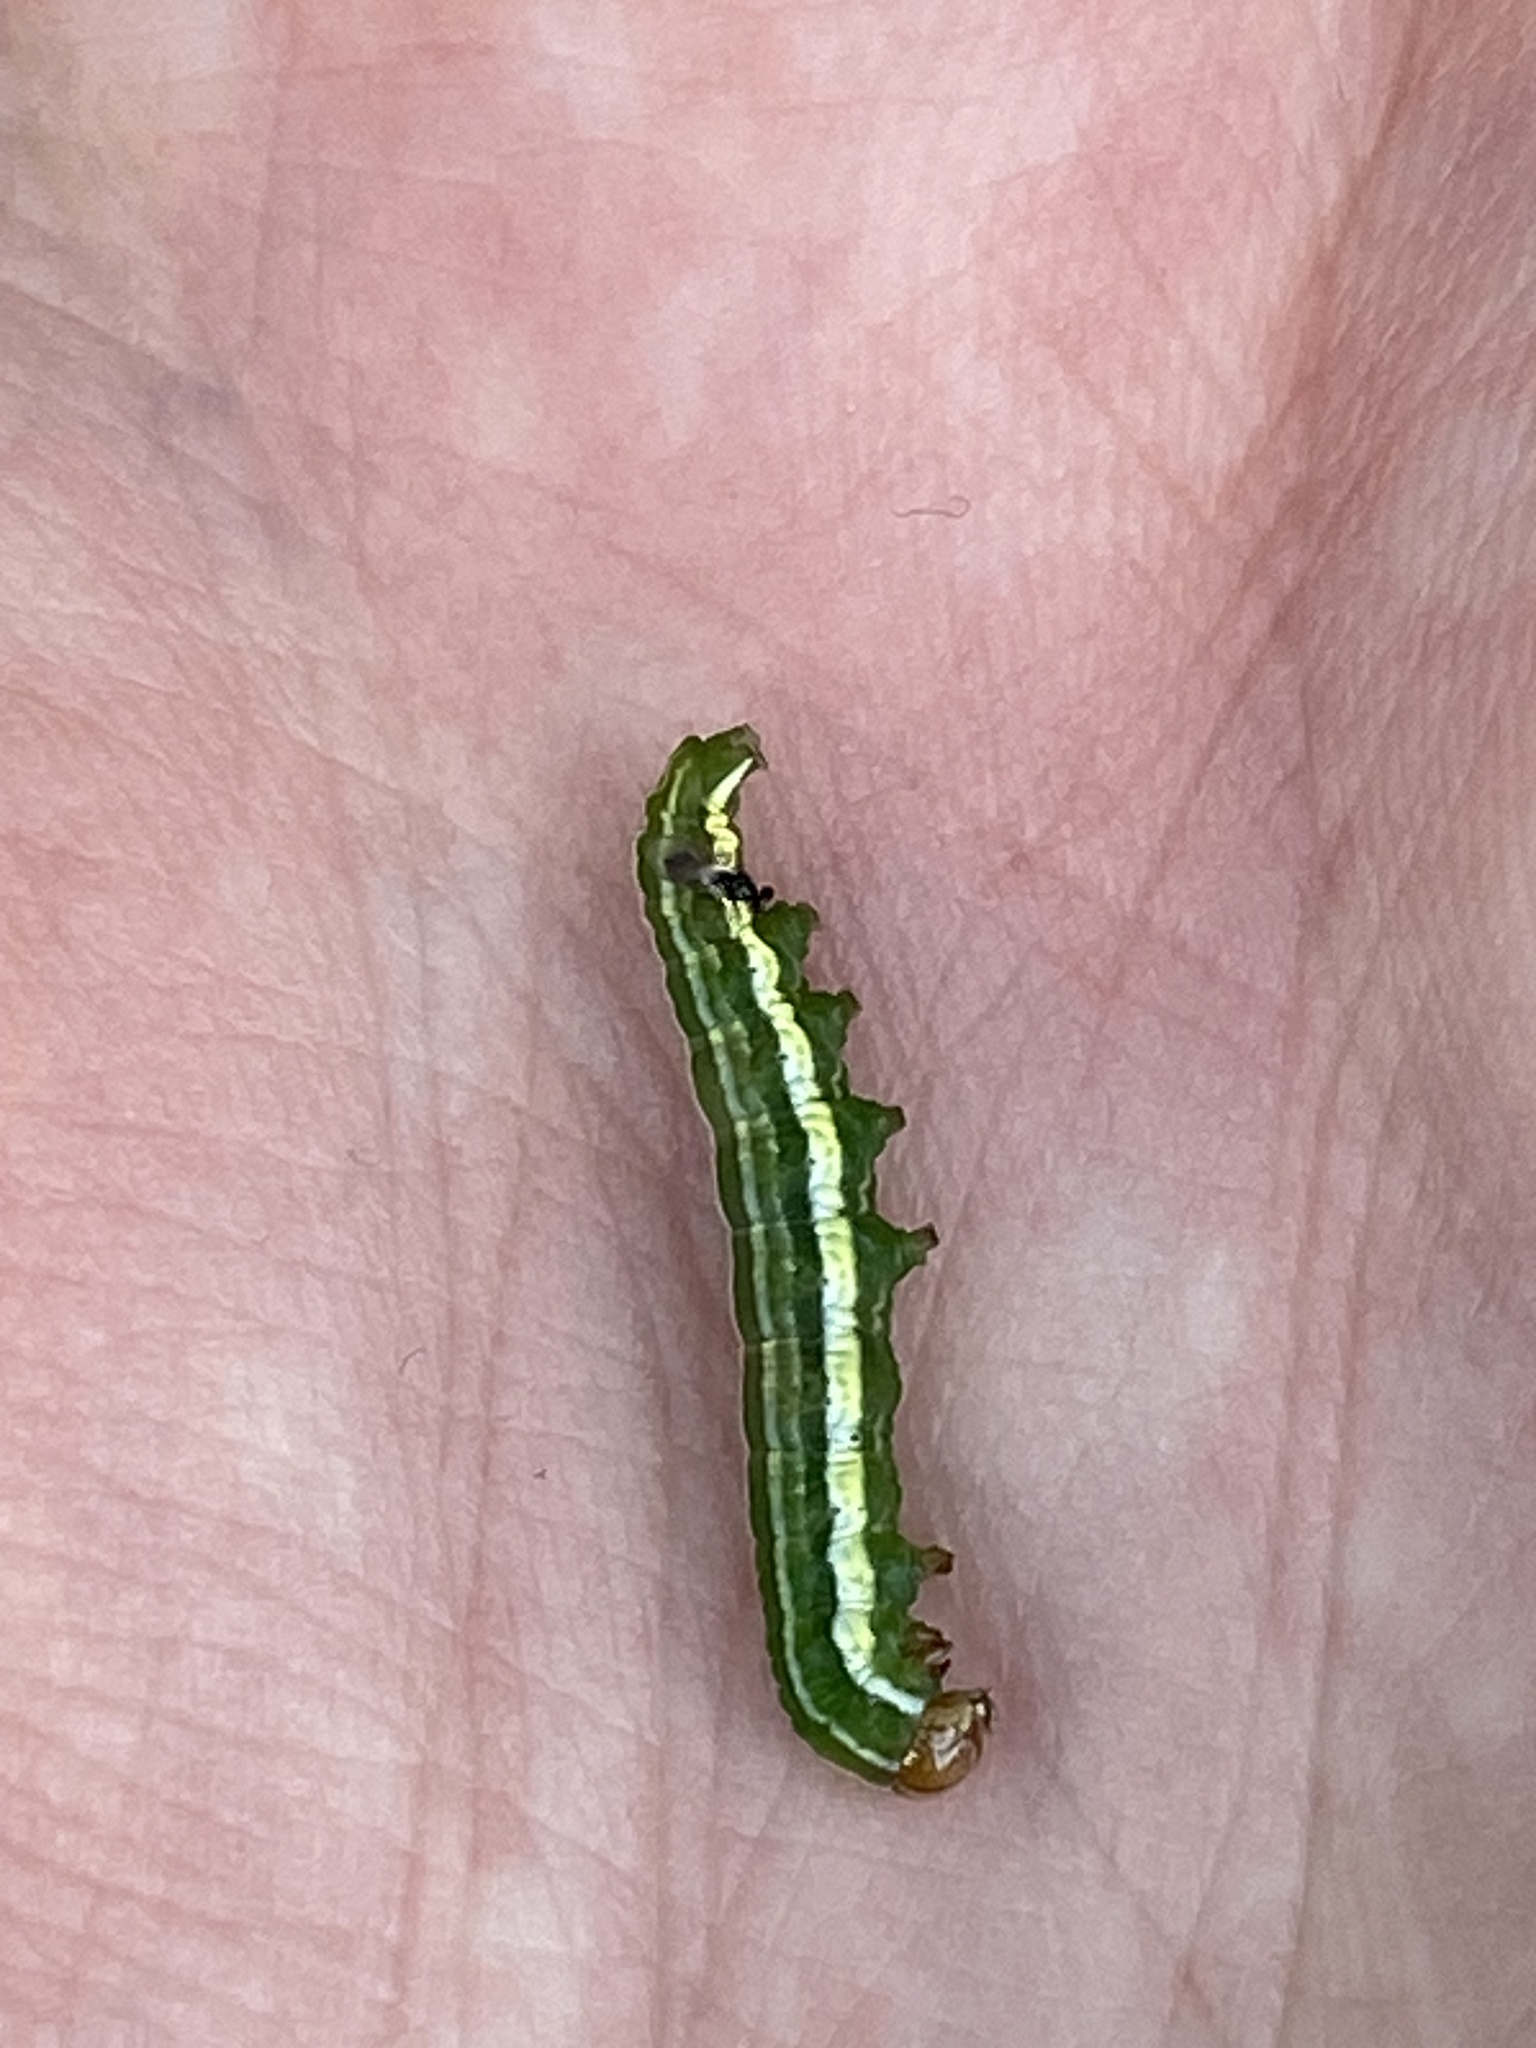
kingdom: Animalia
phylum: Arthropoda
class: Insecta
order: Lepidoptera
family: Noctuidae
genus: Panolis
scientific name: Panolis flammea
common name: Pine beauty
